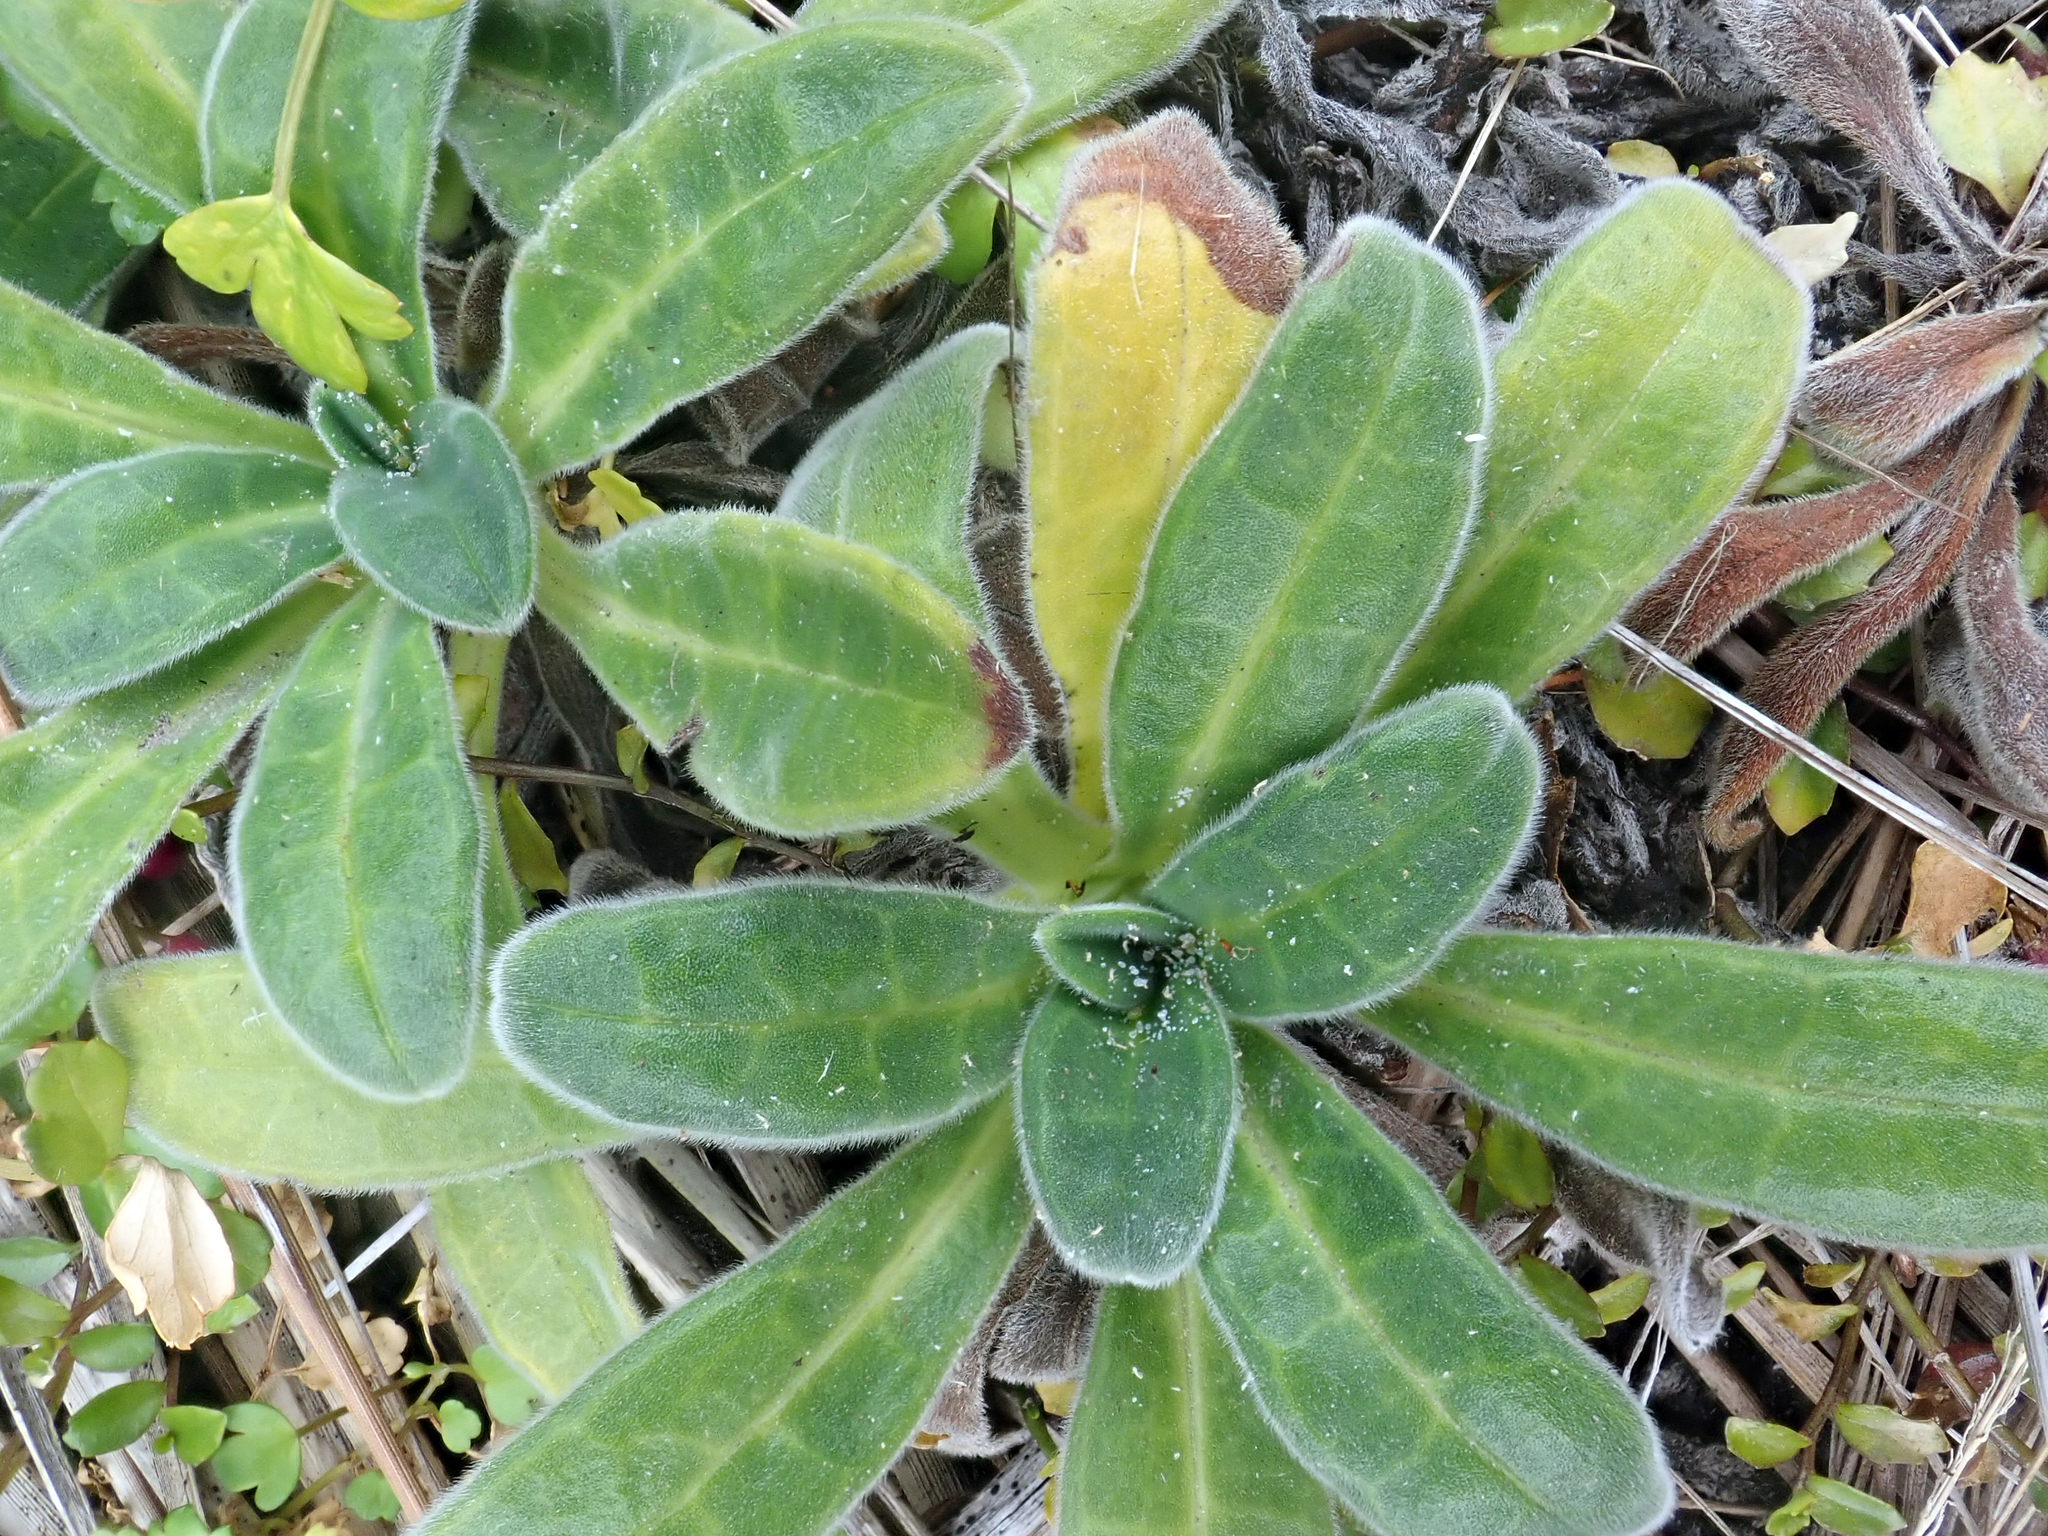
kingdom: Plantae
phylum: Tracheophyta
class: Magnoliopsida
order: Boraginales
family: Boraginaceae
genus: Myosotis
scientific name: Myosotis rakiura
